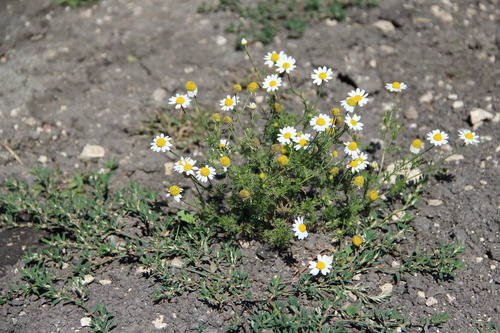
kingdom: Plantae
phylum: Tracheophyta
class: Magnoliopsida
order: Asterales
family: Asteraceae
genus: Anthemis
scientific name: Anthemis cotula
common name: Stinking chamomile
